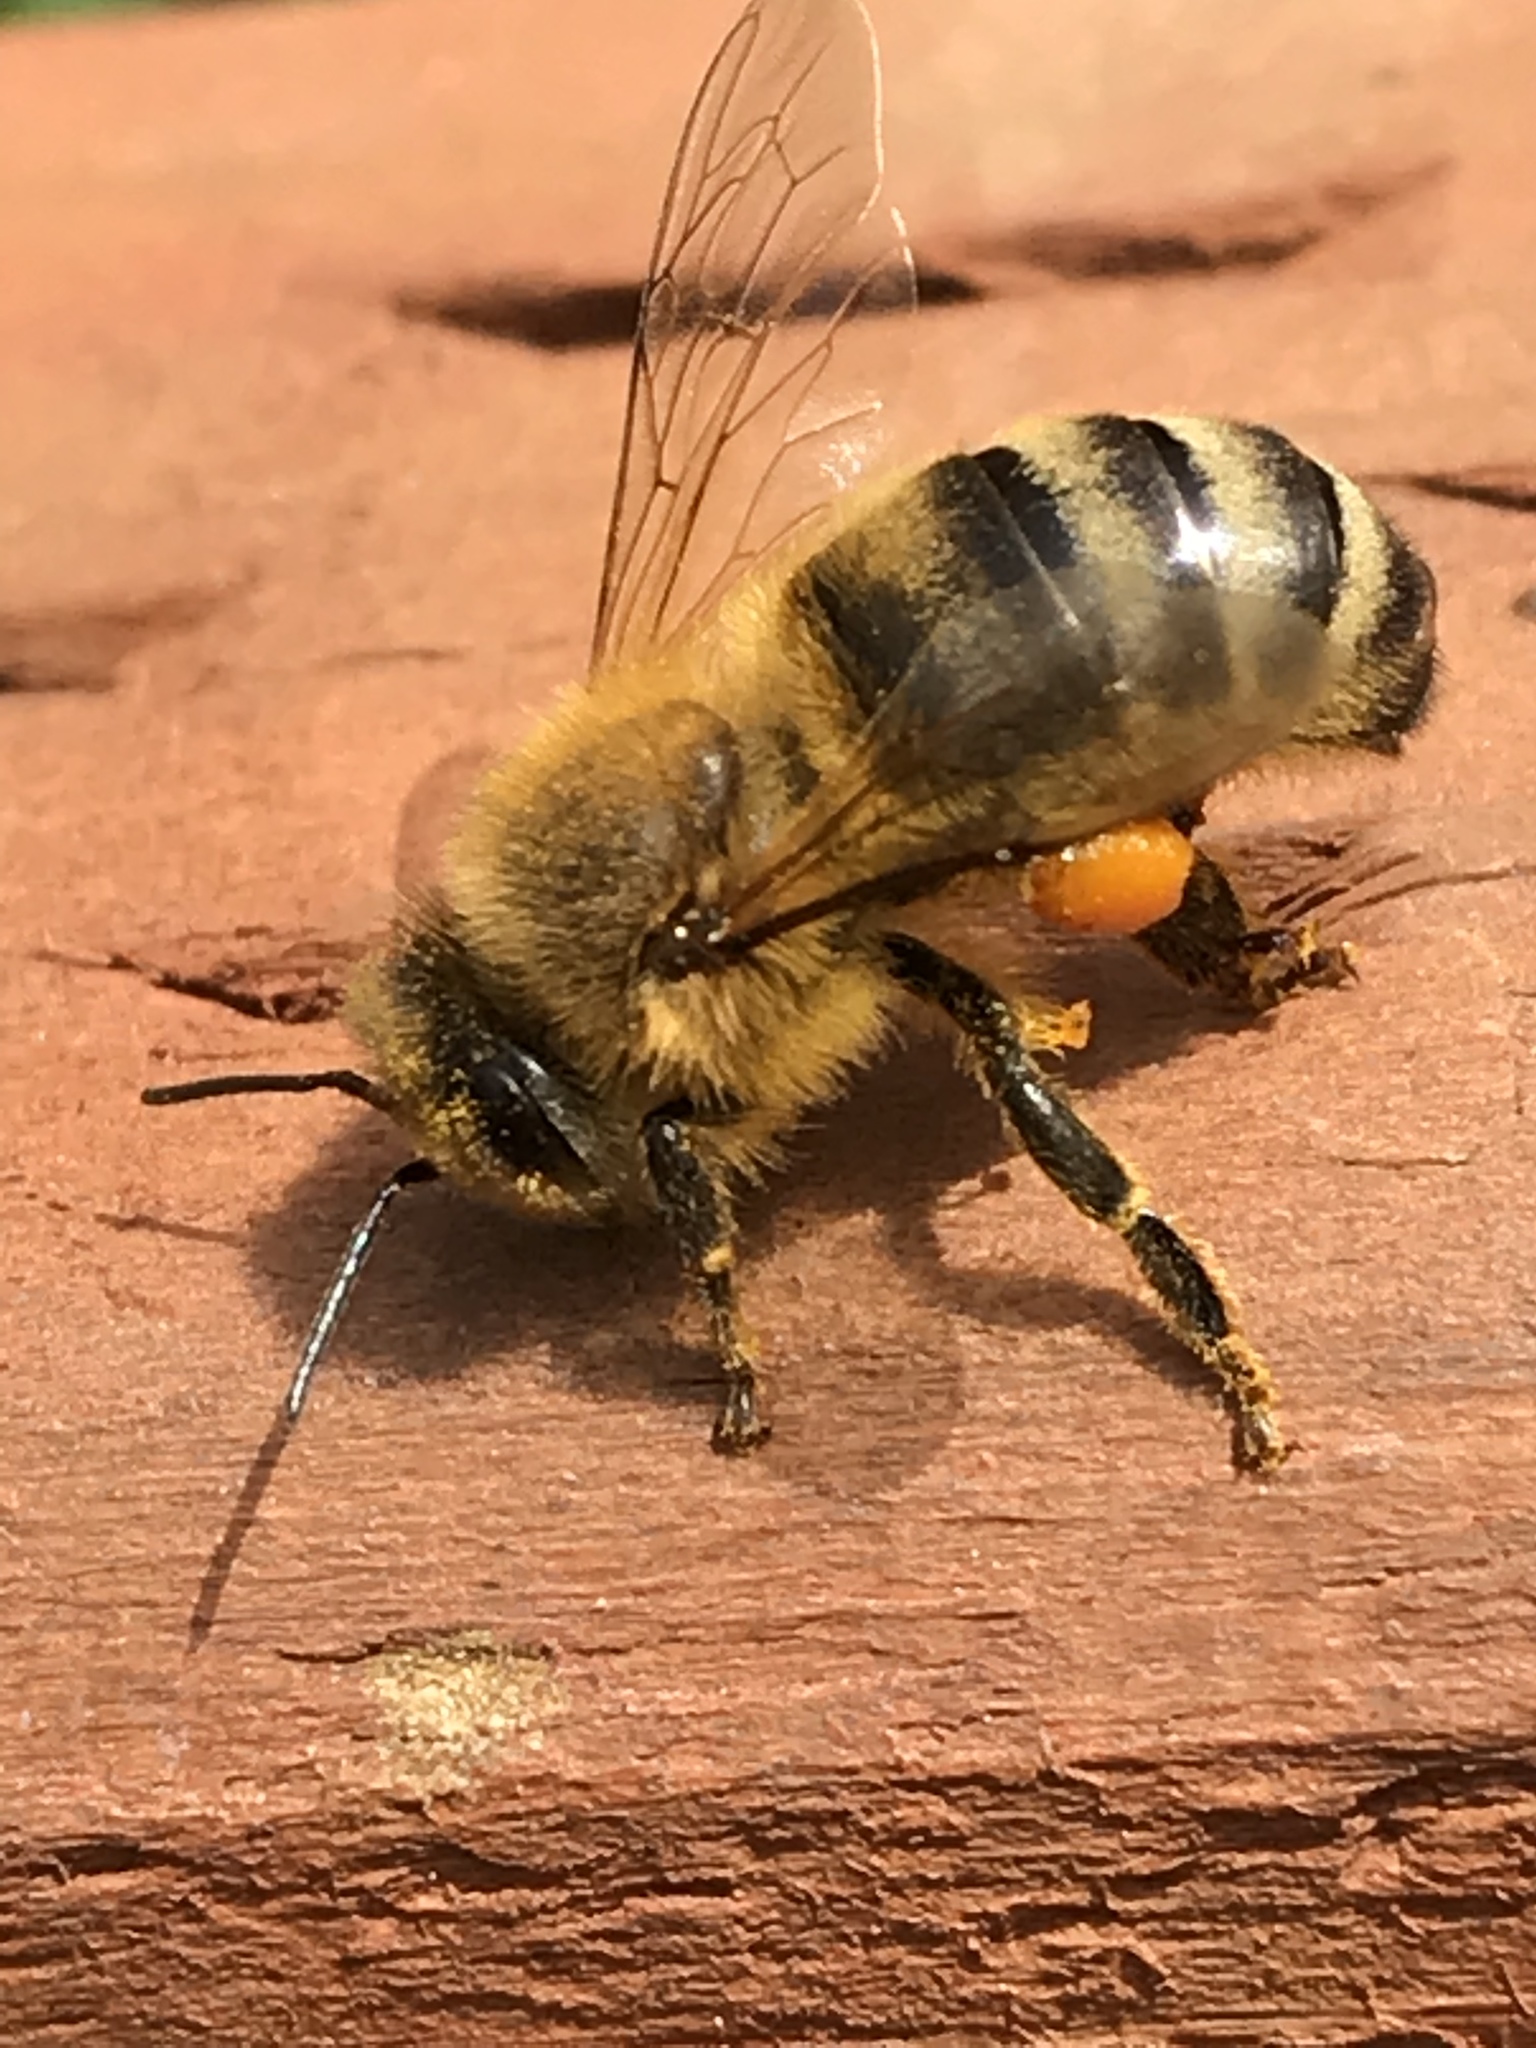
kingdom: Animalia
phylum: Arthropoda
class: Insecta
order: Hymenoptera
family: Apidae
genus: Apis
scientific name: Apis mellifera
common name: Honey bee
